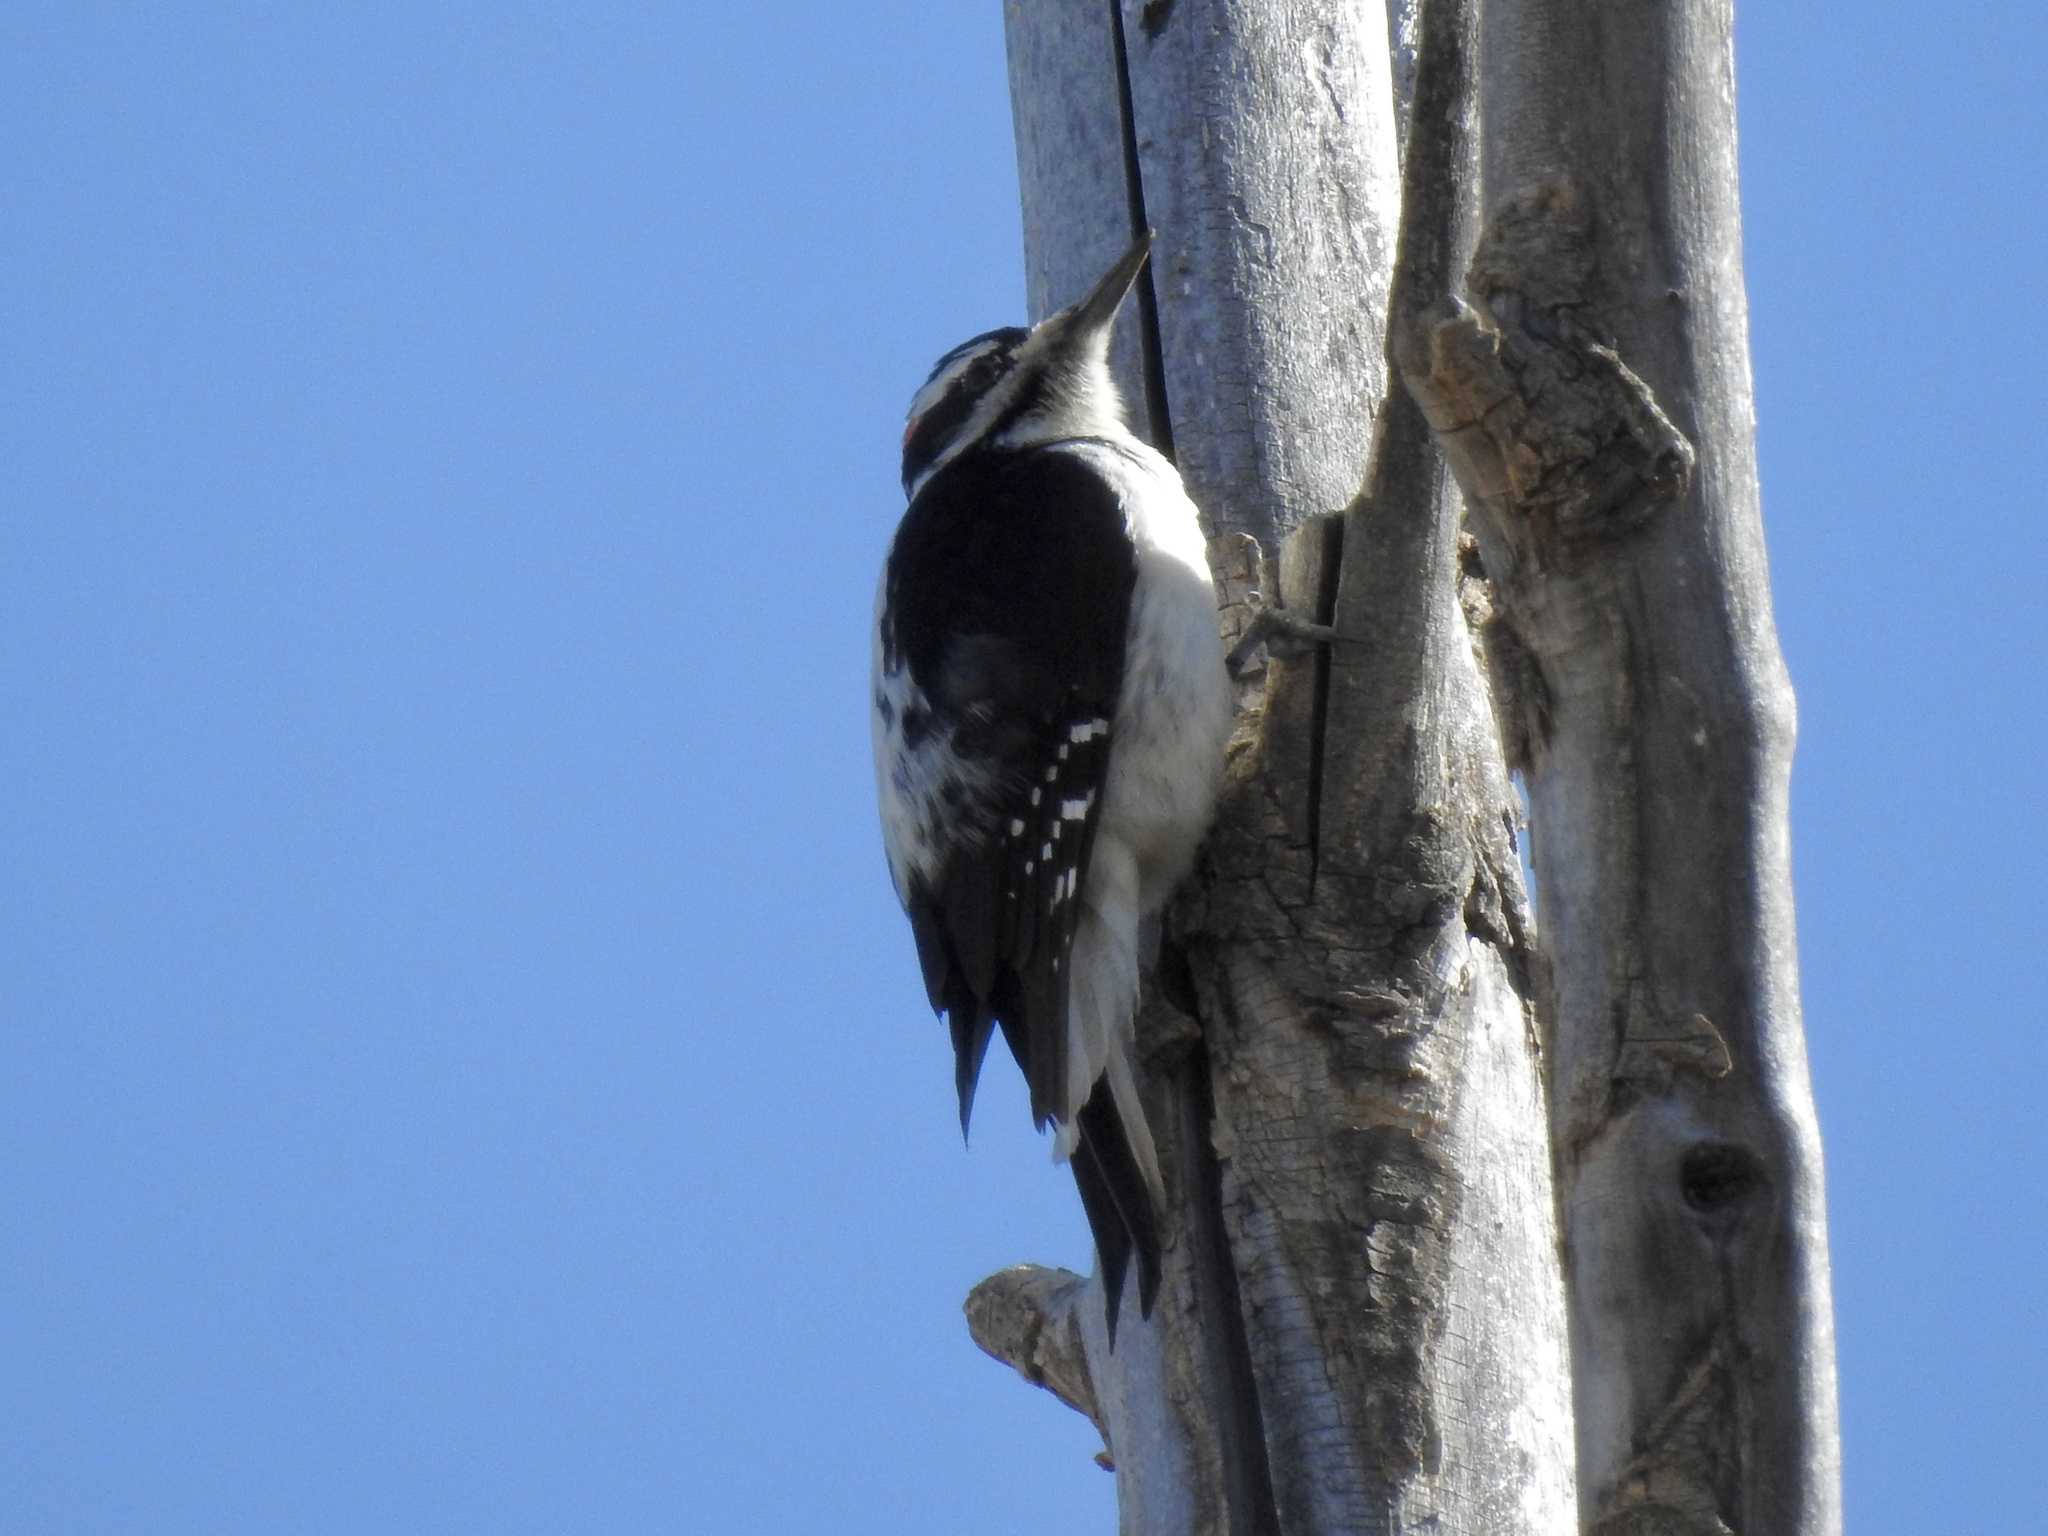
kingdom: Animalia
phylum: Chordata
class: Aves
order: Piciformes
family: Picidae
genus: Leuconotopicus
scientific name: Leuconotopicus villosus
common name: Hairy woodpecker
